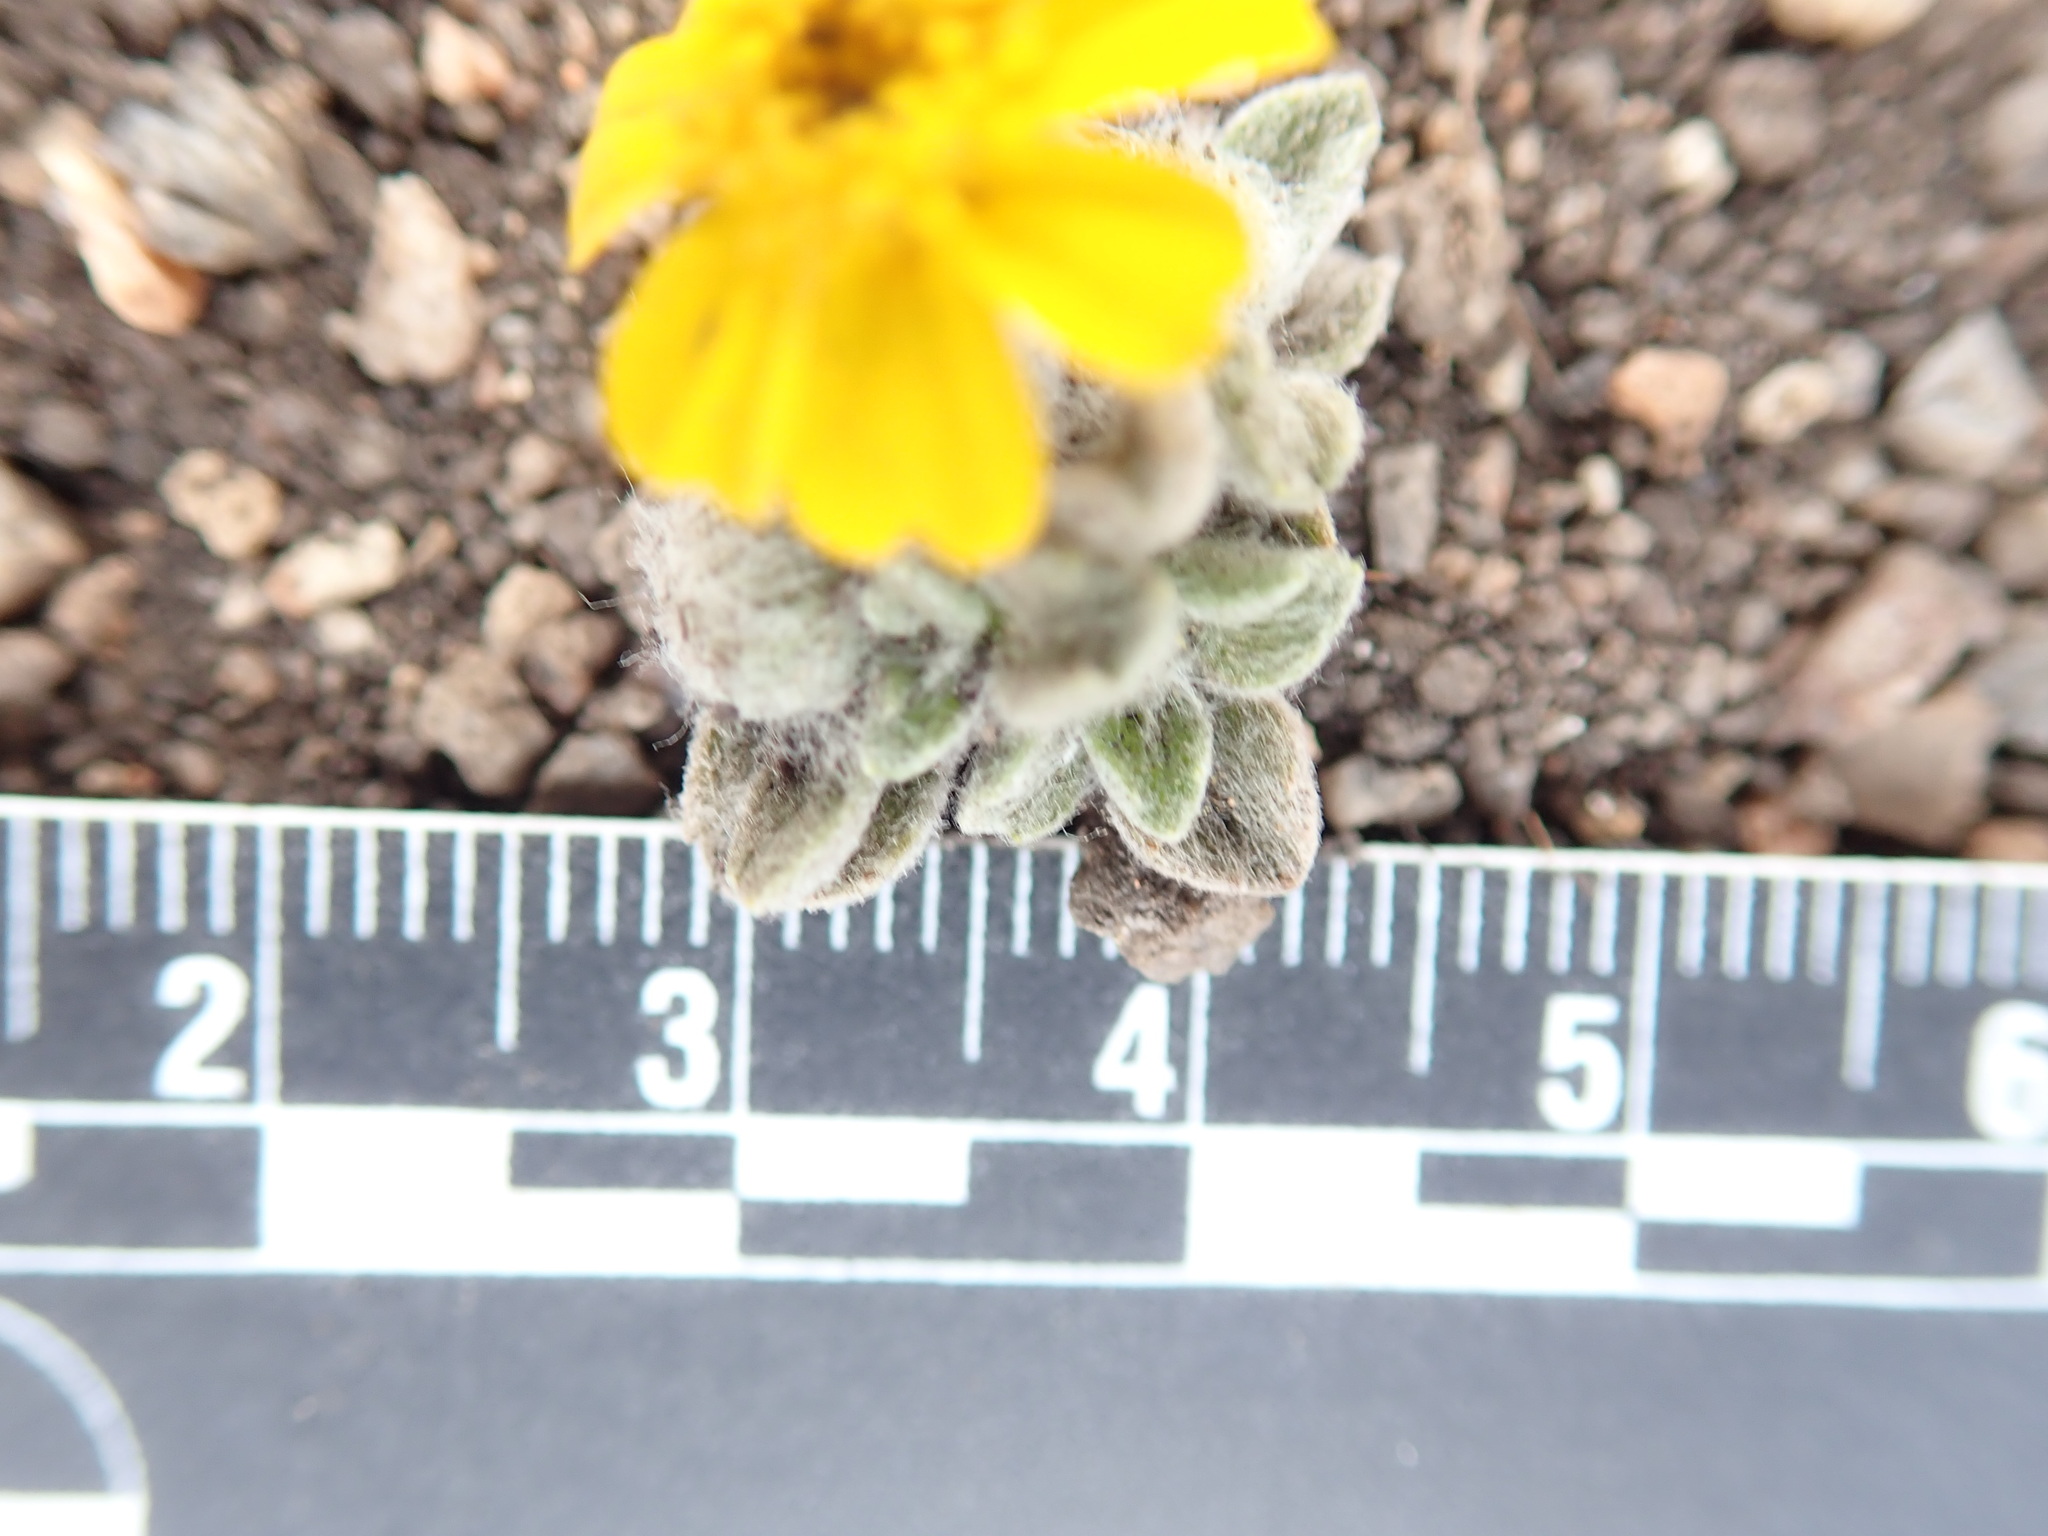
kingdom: Plantae
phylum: Tracheophyta
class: Magnoliopsida
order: Asterales
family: Asteraceae
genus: Eriophyllum
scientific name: Eriophyllum wallacei
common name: Wallace's woolly daisy
